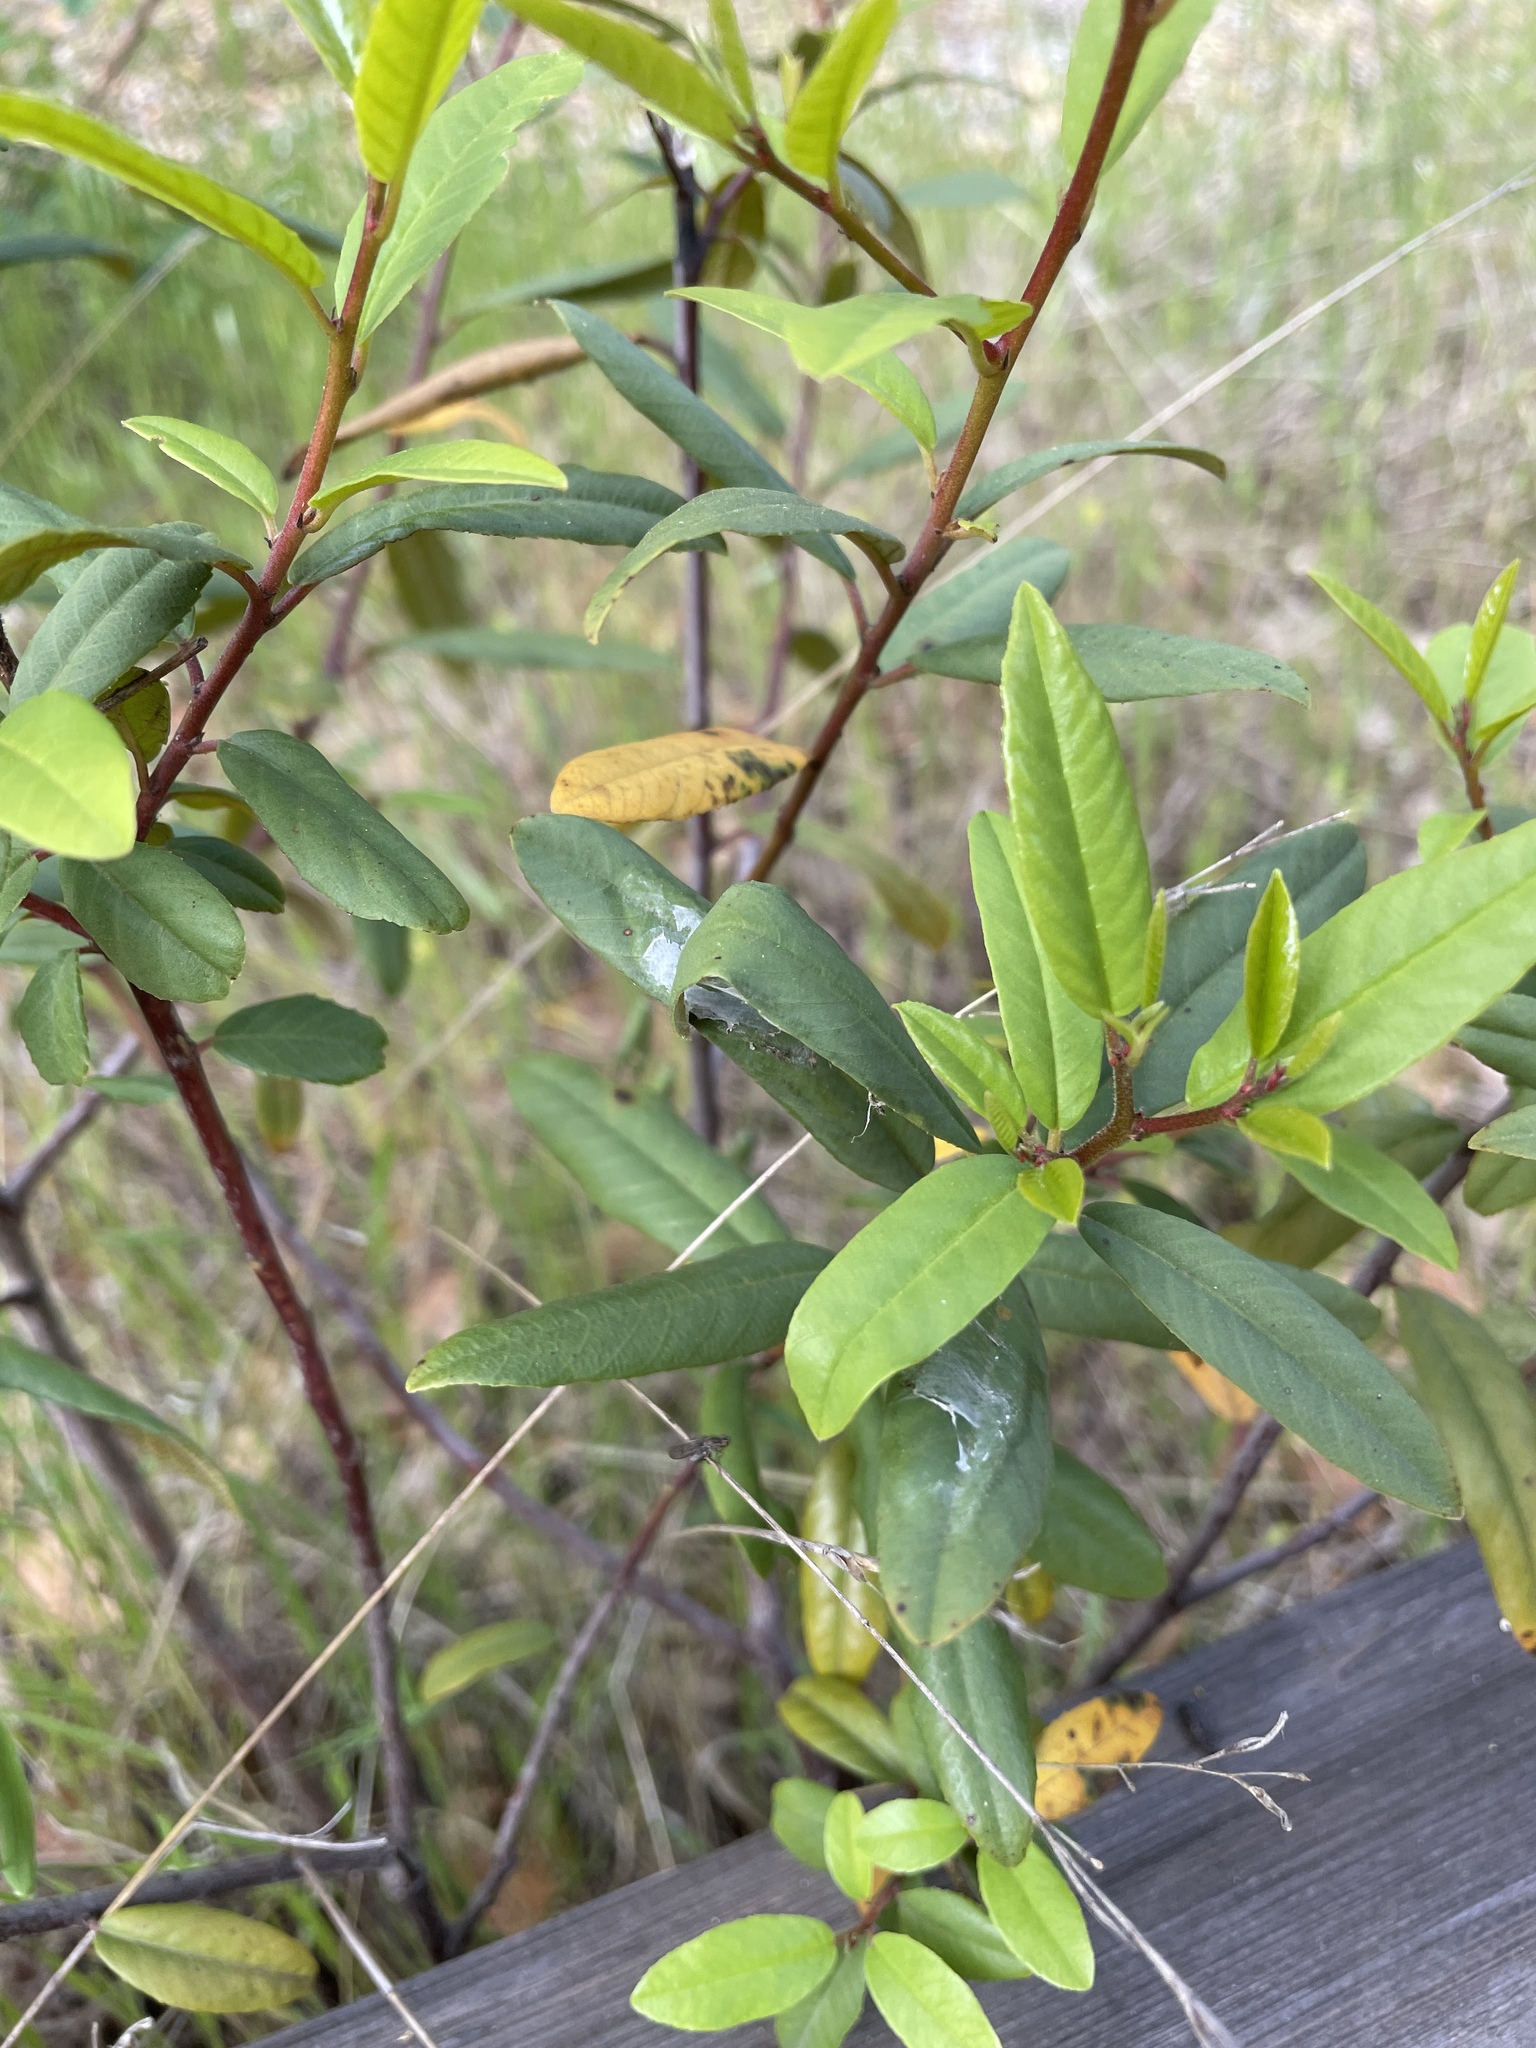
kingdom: Plantae
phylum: Tracheophyta
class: Magnoliopsida
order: Rosales
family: Rhamnaceae
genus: Frangula
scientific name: Frangula californica
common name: California buckthorn
